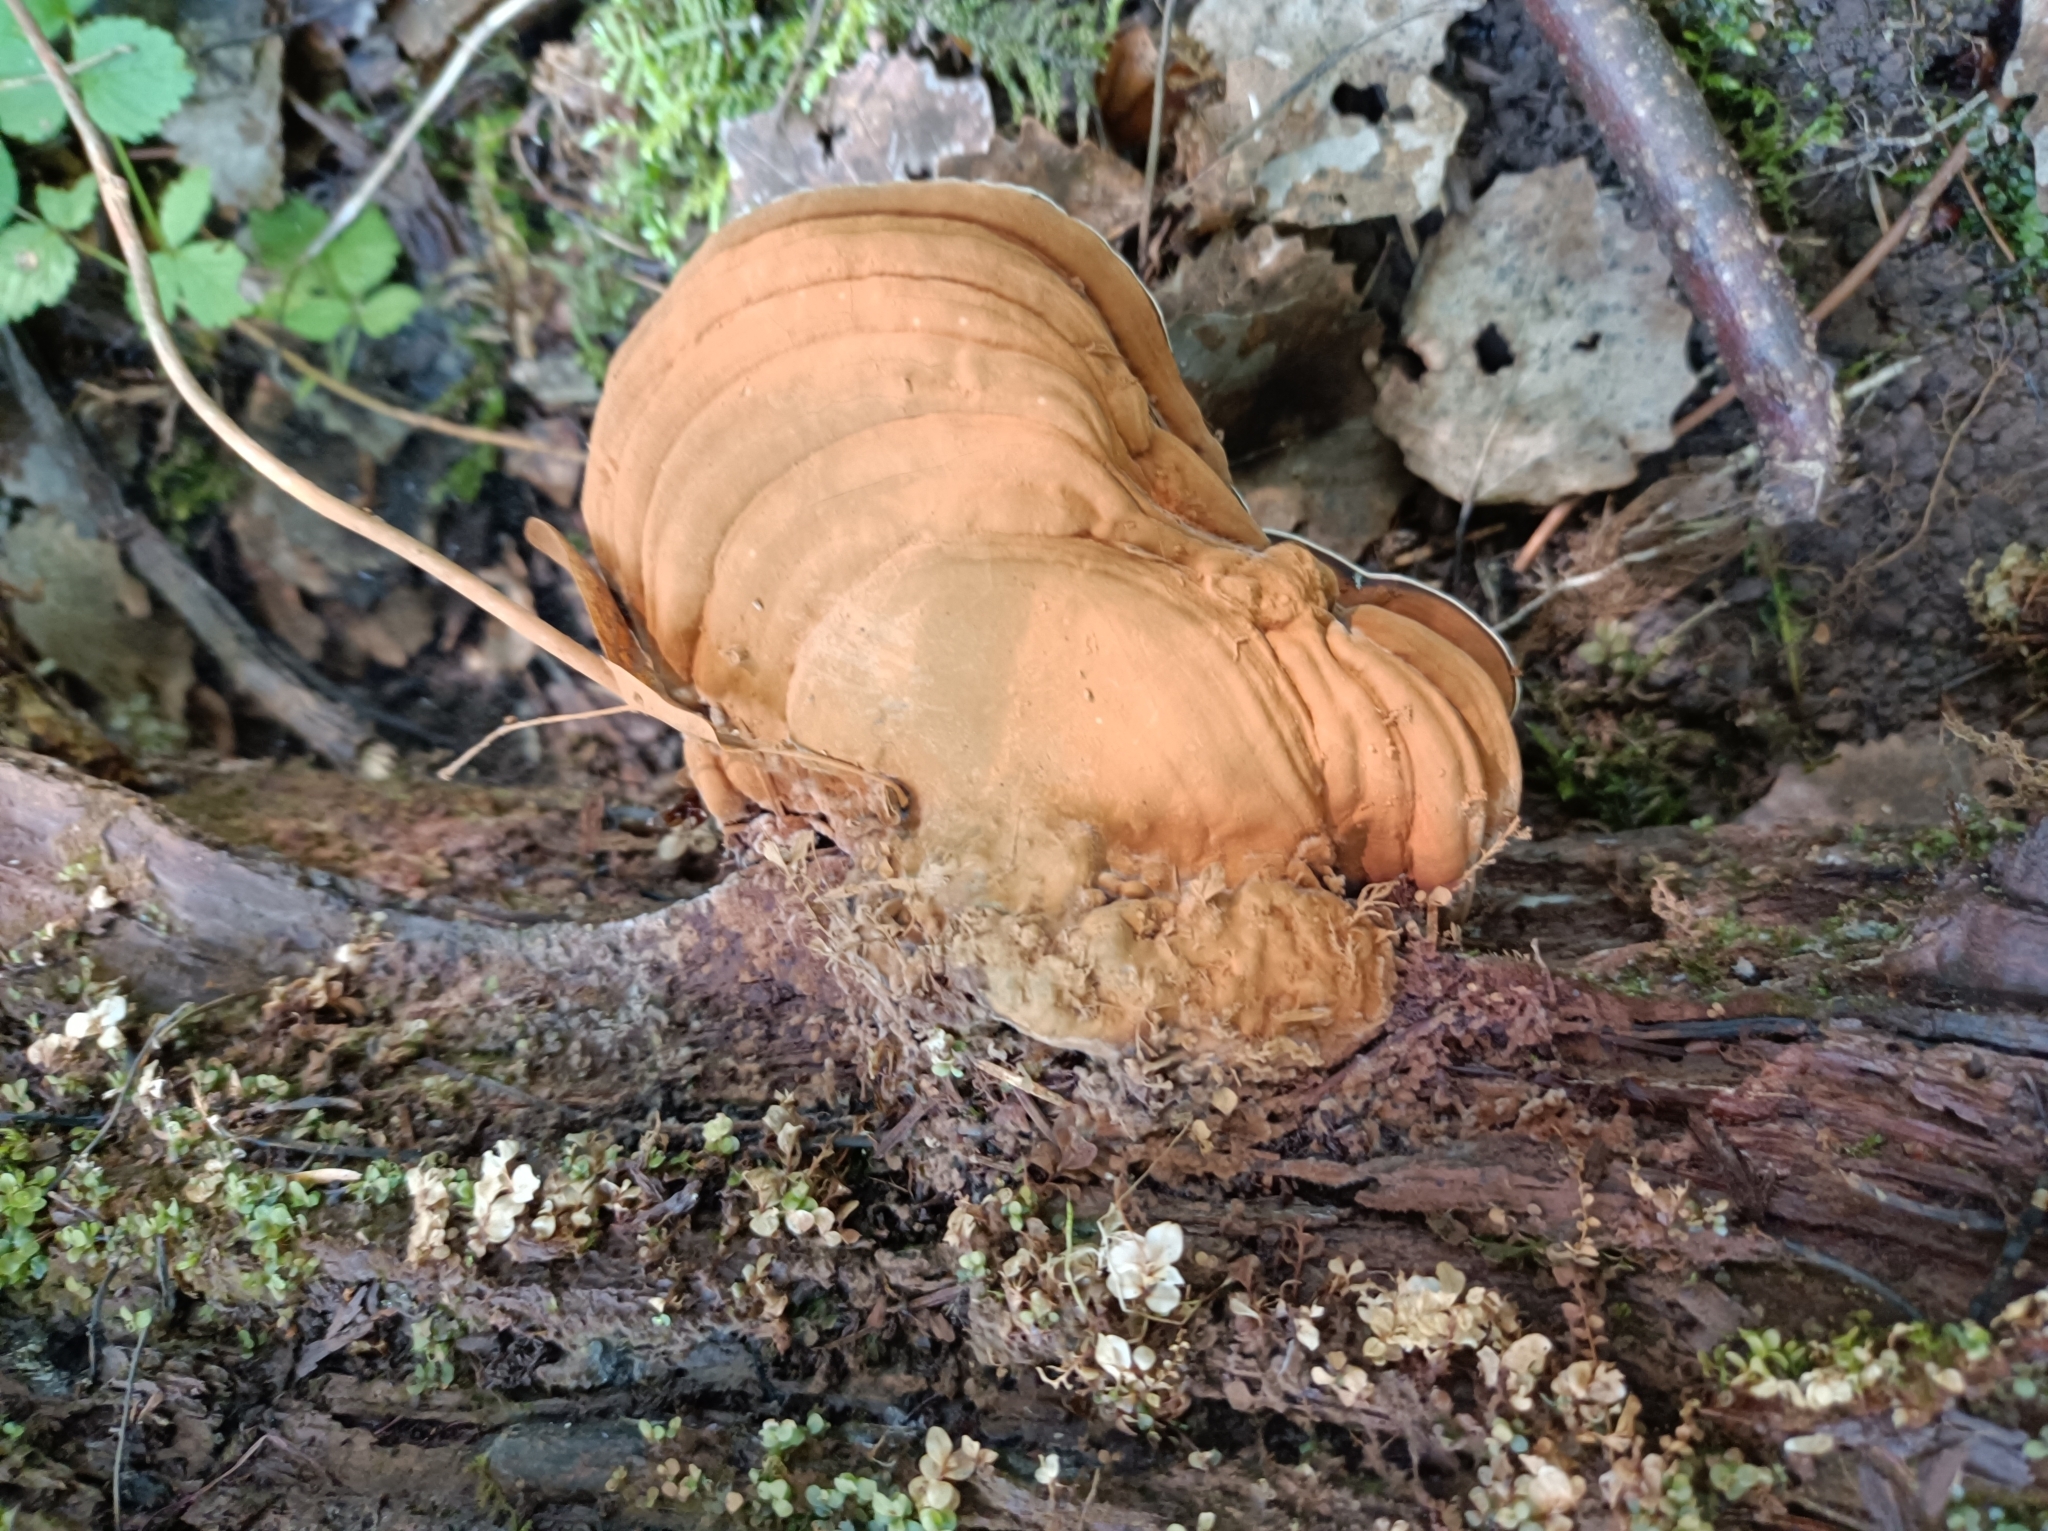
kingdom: Fungi
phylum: Basidiomycota
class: Agaricomycetes
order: Polyporales
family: Polyporaceae
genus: Ganoderma
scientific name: Ganoderma applanatum
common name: Artist's bracket
